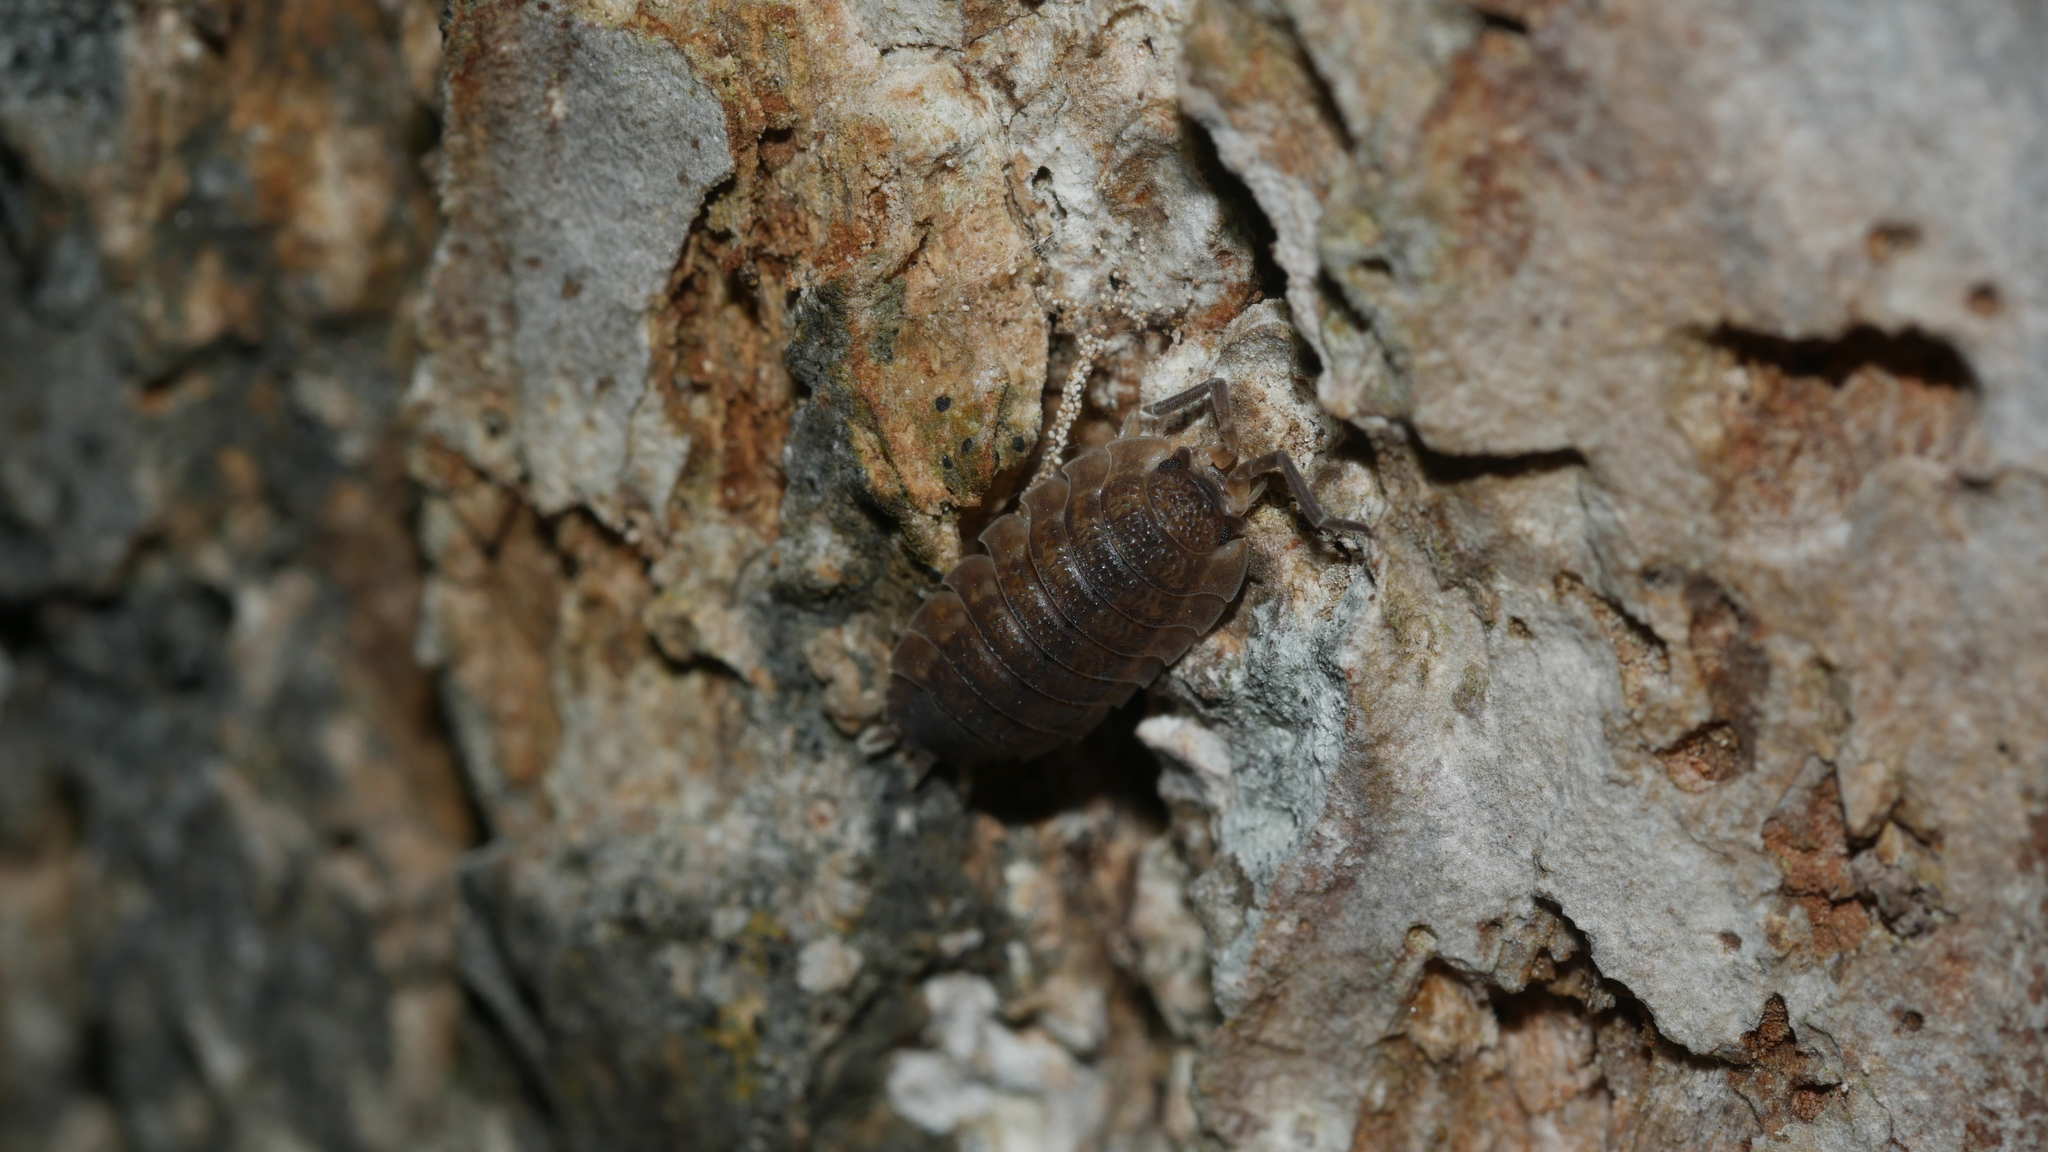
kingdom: Animalia
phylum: Arthropoda
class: Malacostraca
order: Isopoda
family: Porcellionidae
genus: Porcellio
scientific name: Porcellio scaber
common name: Common rough woodlouse
